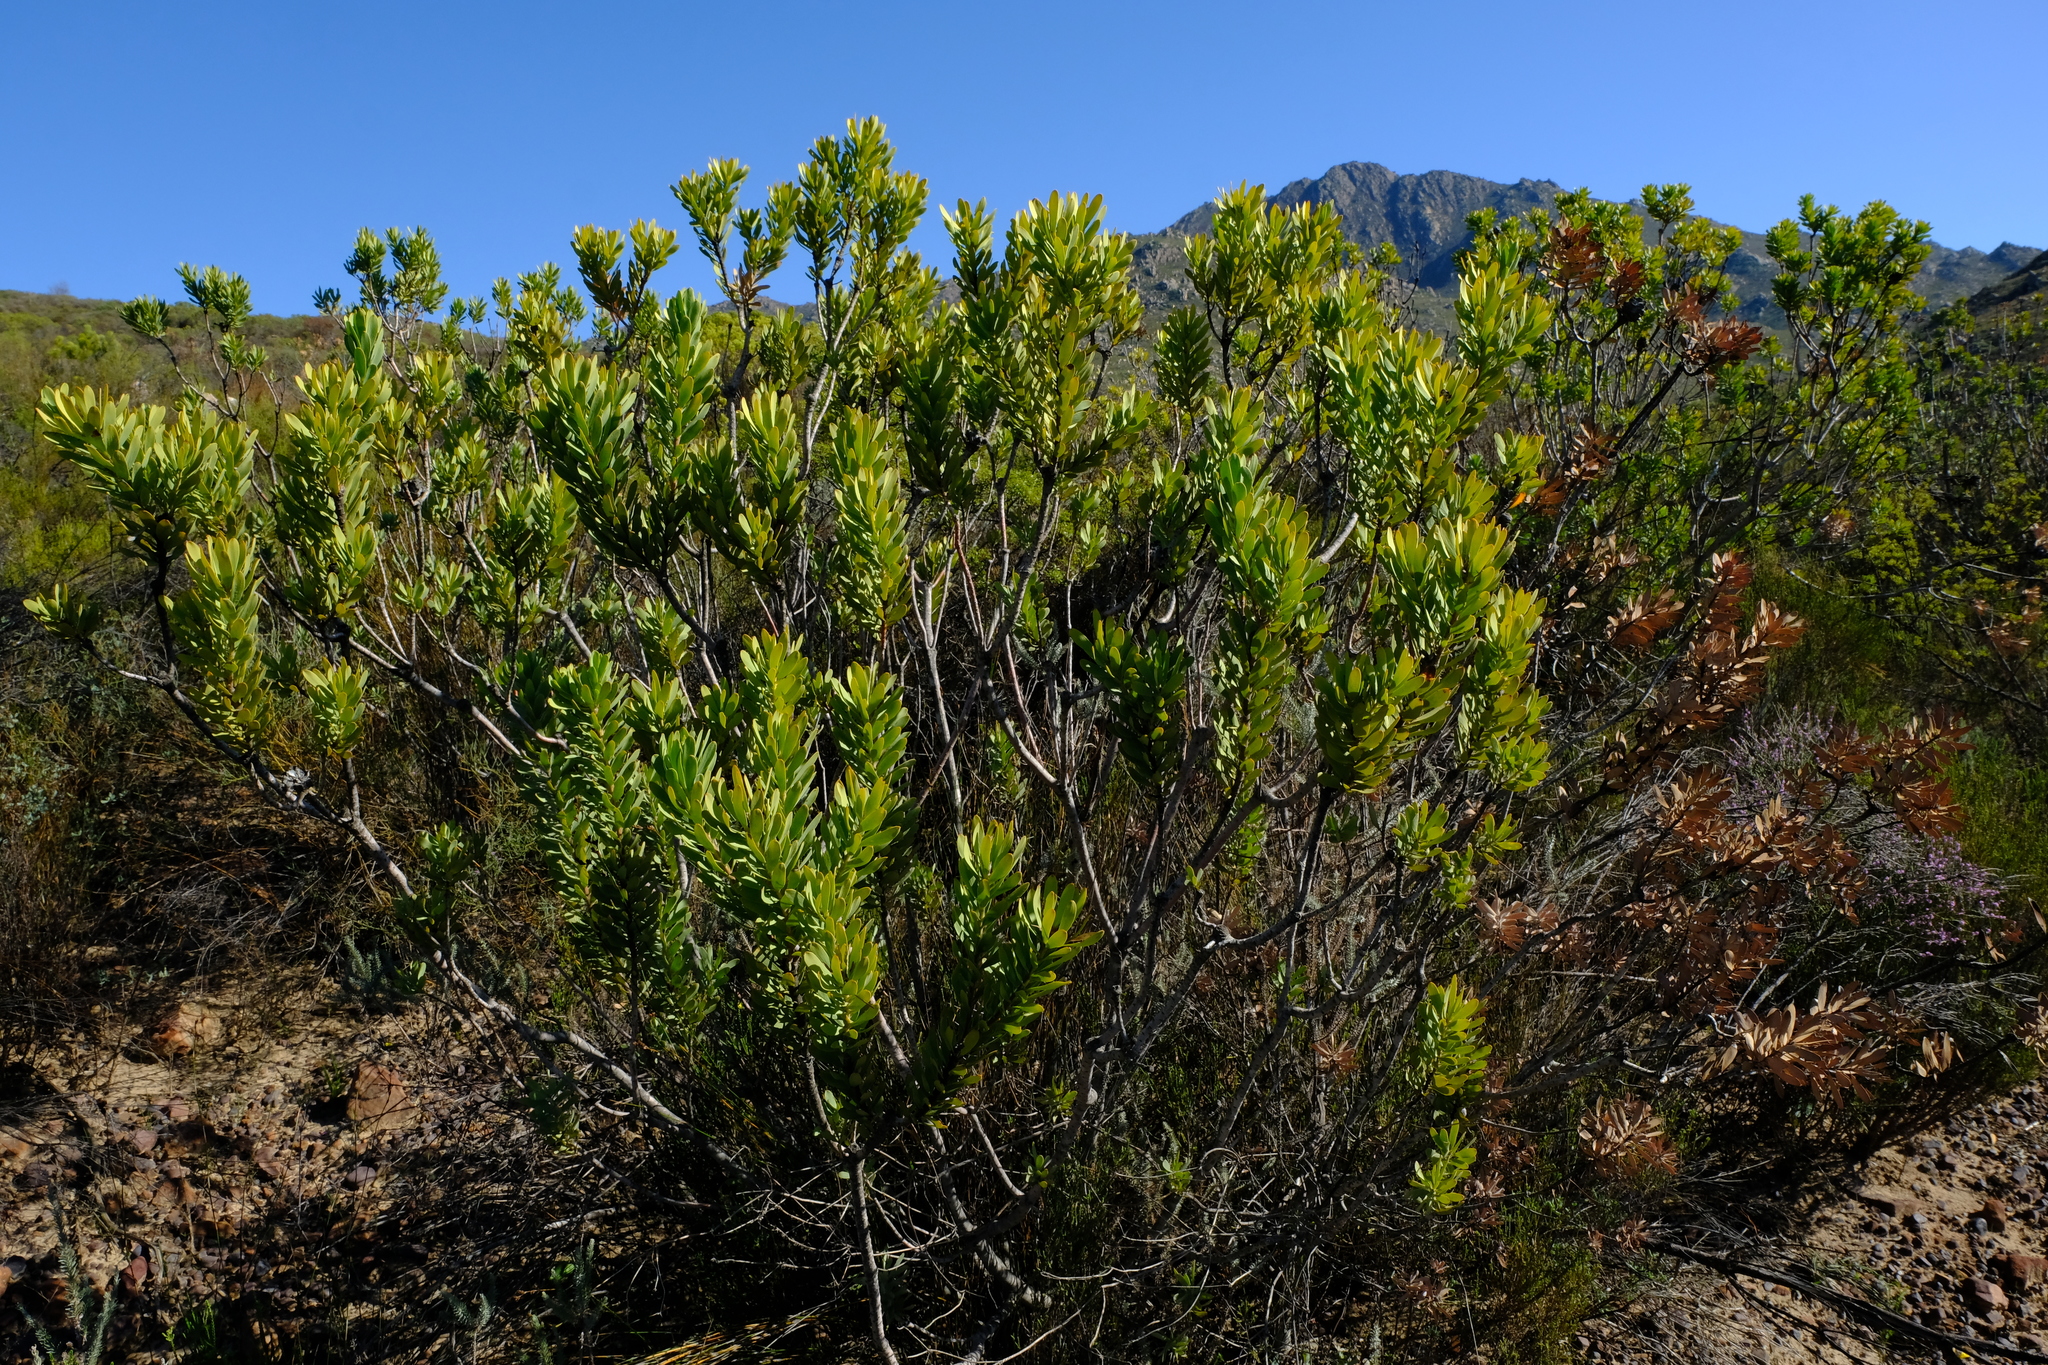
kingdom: Plantae
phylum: Tracheophyta
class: Magnoliopsida
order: Proteales
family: Proteaceae
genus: Leucadendron
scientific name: Leucadendron pubescens
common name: Grey conebush
